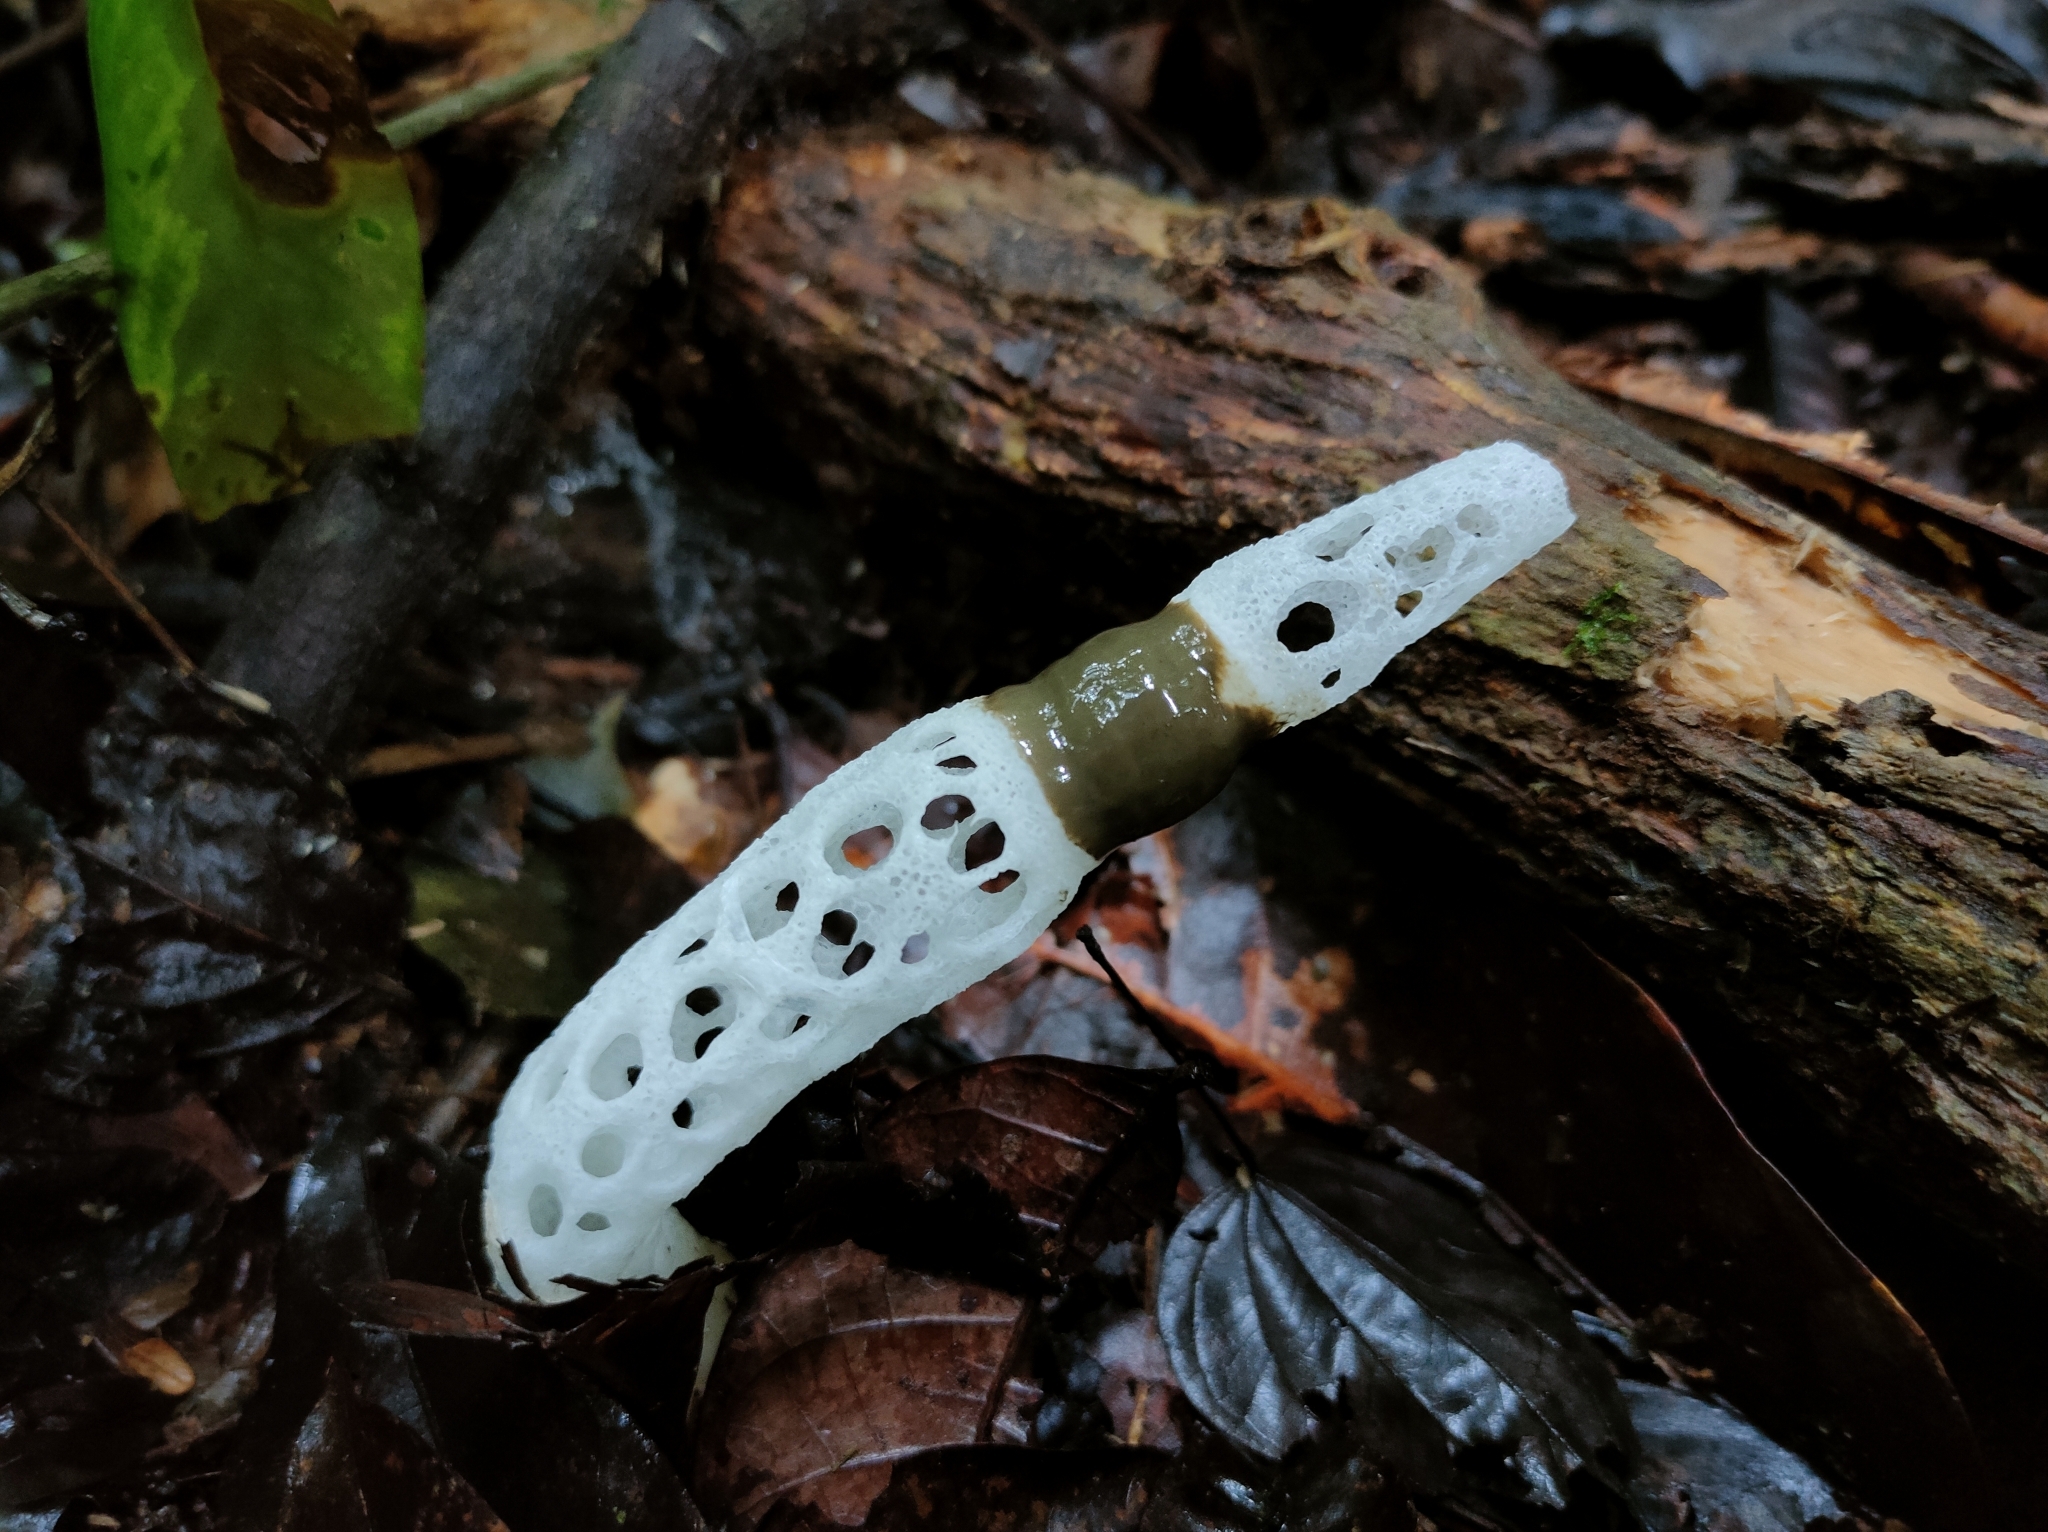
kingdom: Fungi
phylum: Basidiomycota
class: Agaricomycetes
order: Phallales
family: Phallaceae
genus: Staheliomyces
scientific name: Staheliomyces cinctus
